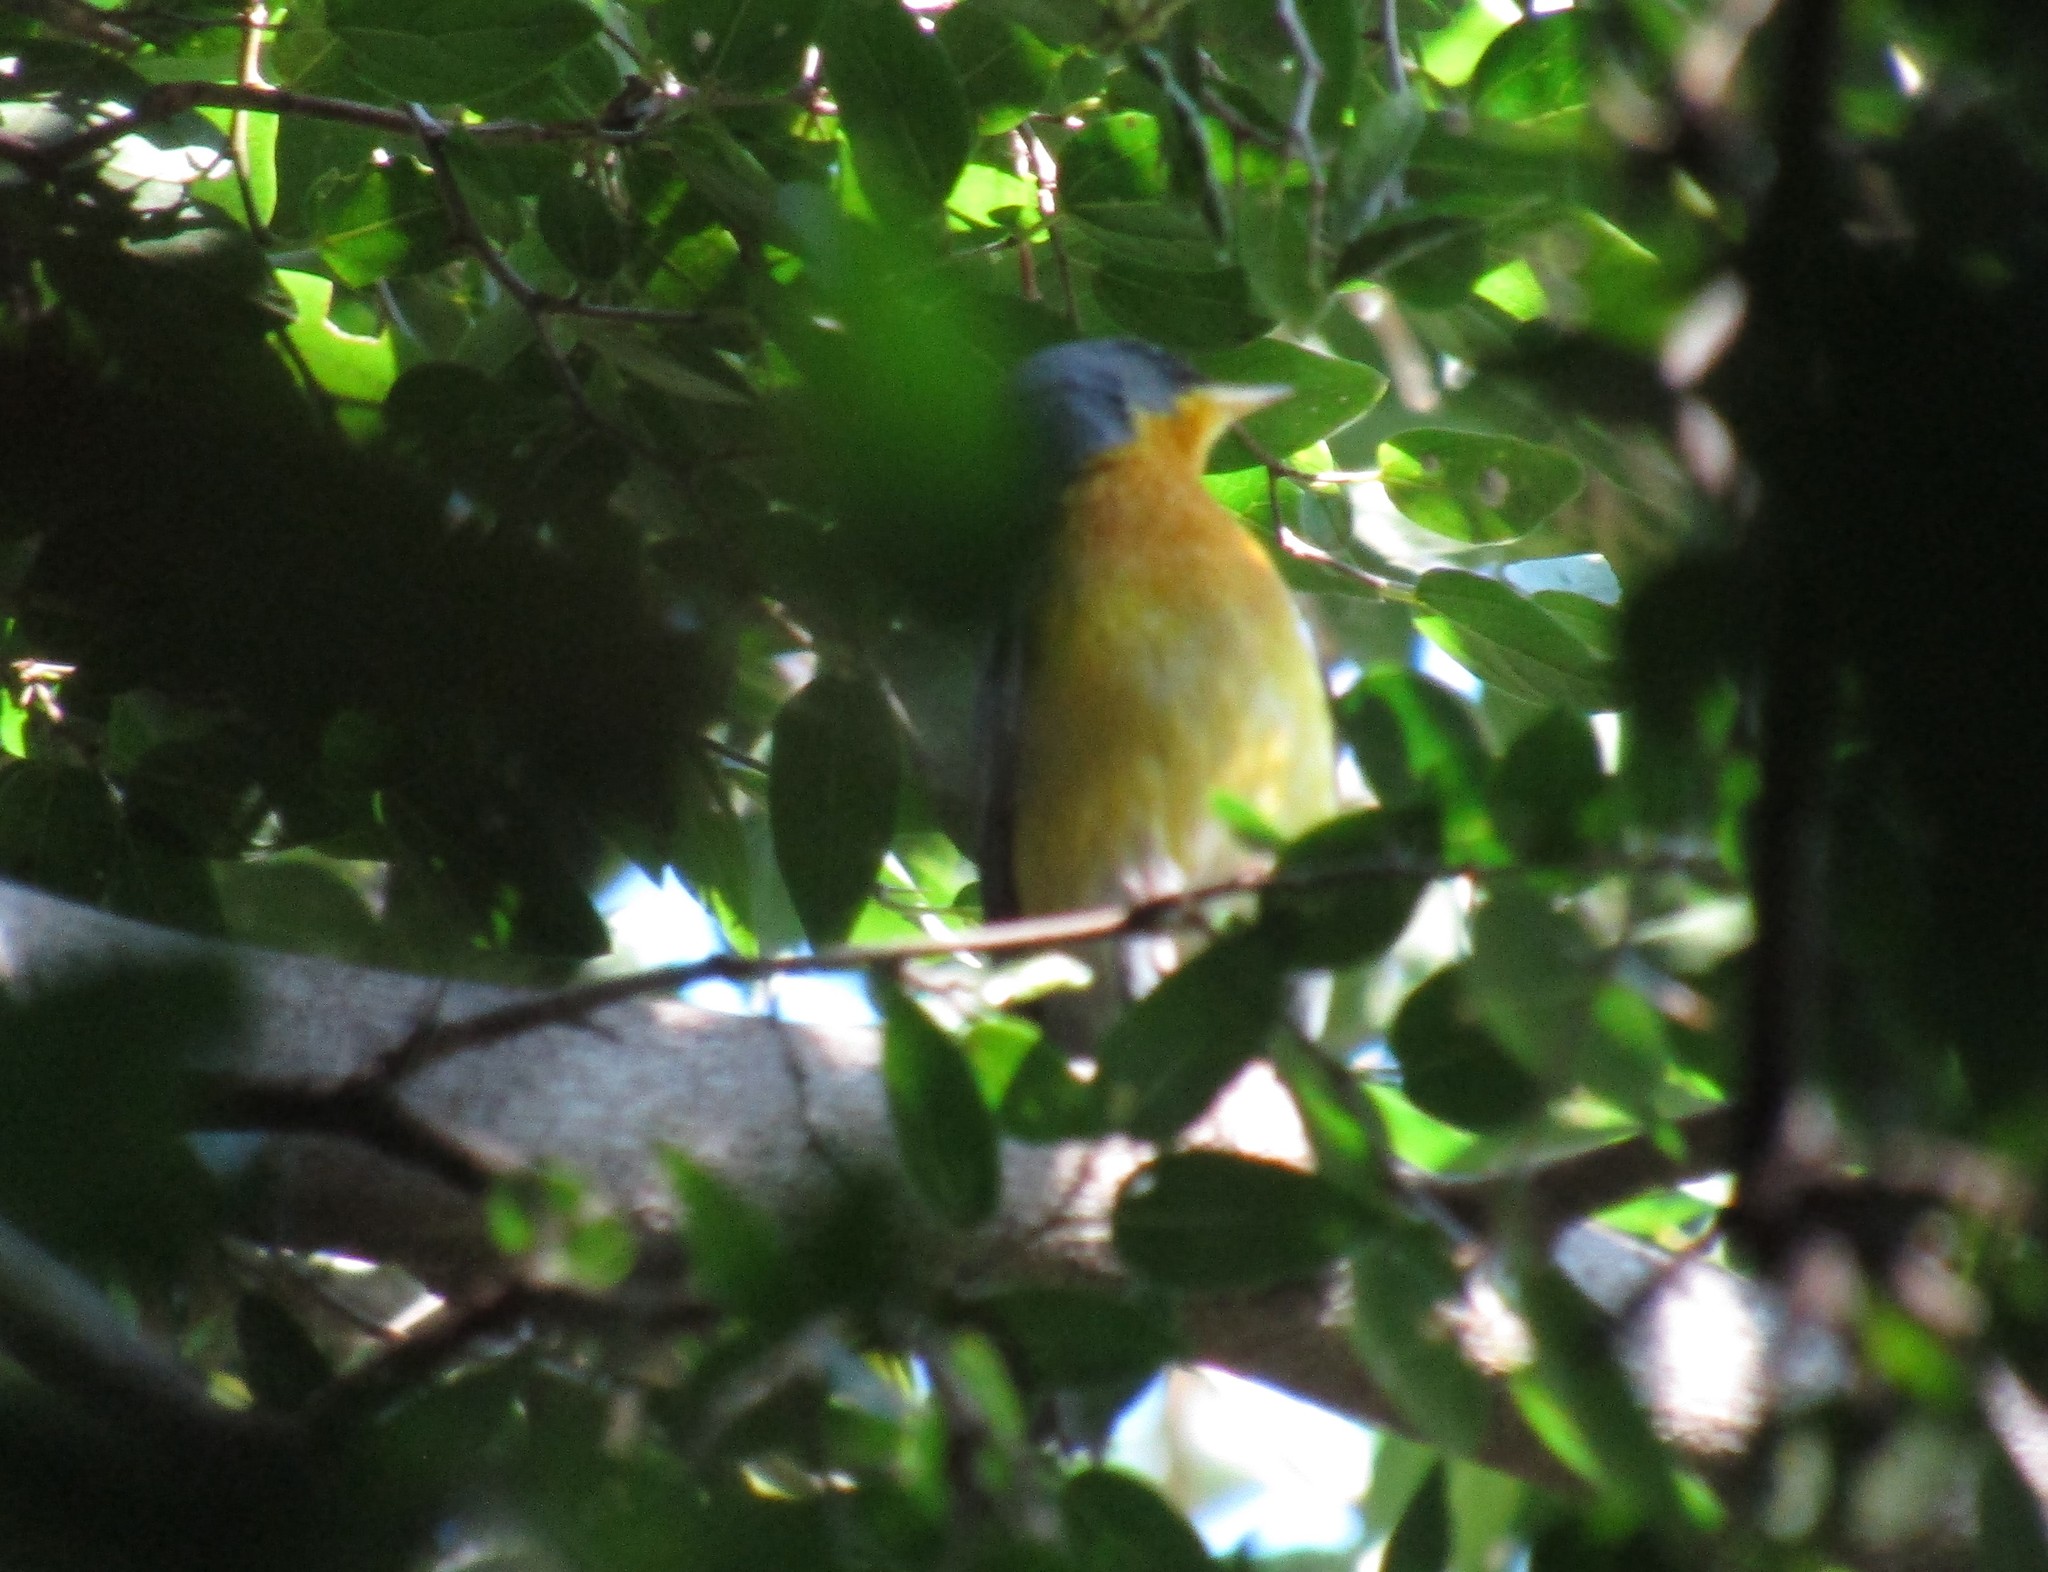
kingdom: Animalia
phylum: Chordata
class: Aves
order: Passeriformes
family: Parulidae
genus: Setophaga
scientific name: Setophaga pitiayumi
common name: Tropical parula
